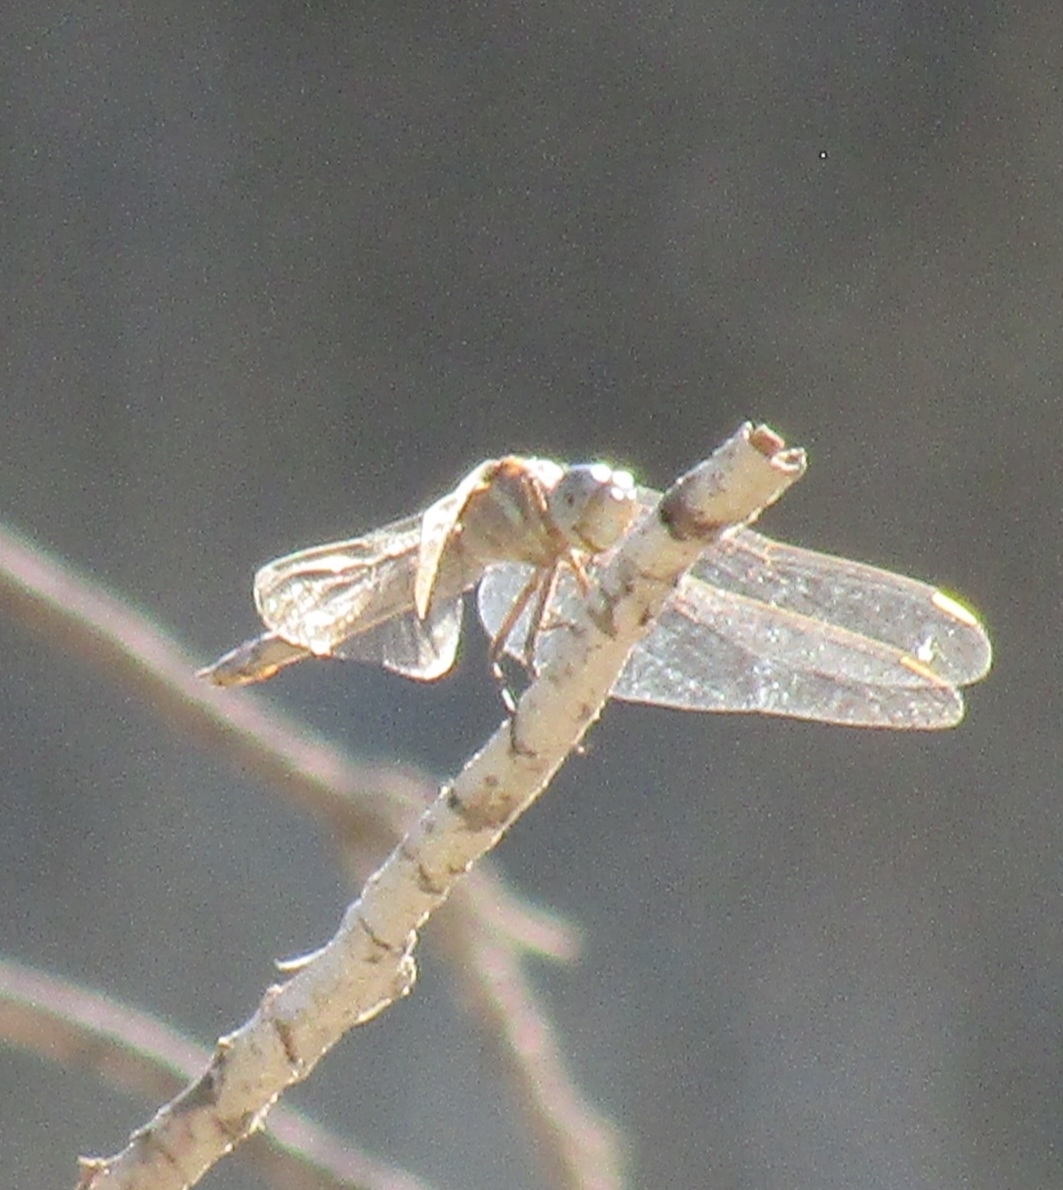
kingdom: Animalia
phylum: Arthropoda
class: Insecta
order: Odonata
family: Libellulidae
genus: Orthetrum
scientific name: Orthetrum chrysostigma
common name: Epaulet skimmer
